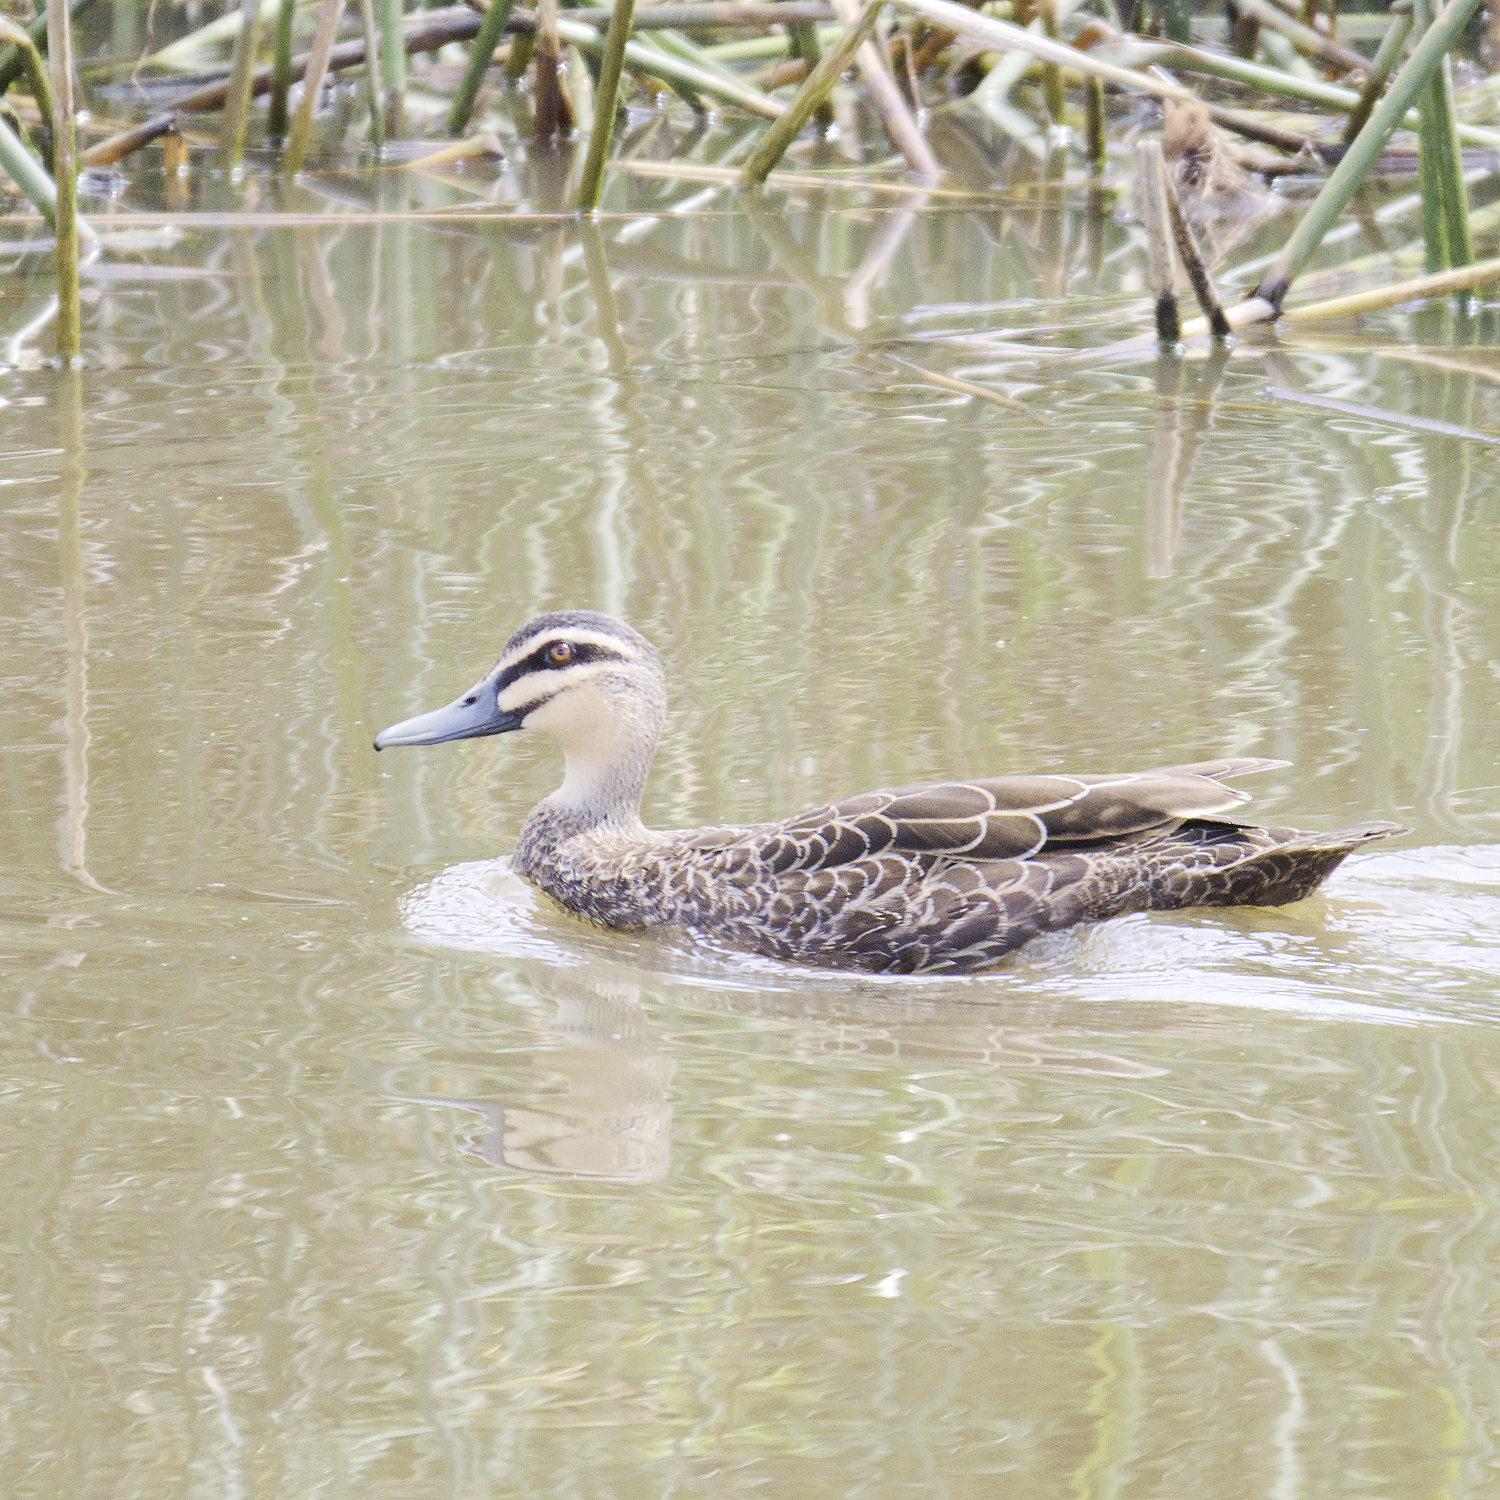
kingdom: Animalia
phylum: Chordata
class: Aves
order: Anseriformes
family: Anatidae
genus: Anas
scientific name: Anas superciliosa
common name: Pacific black duck
